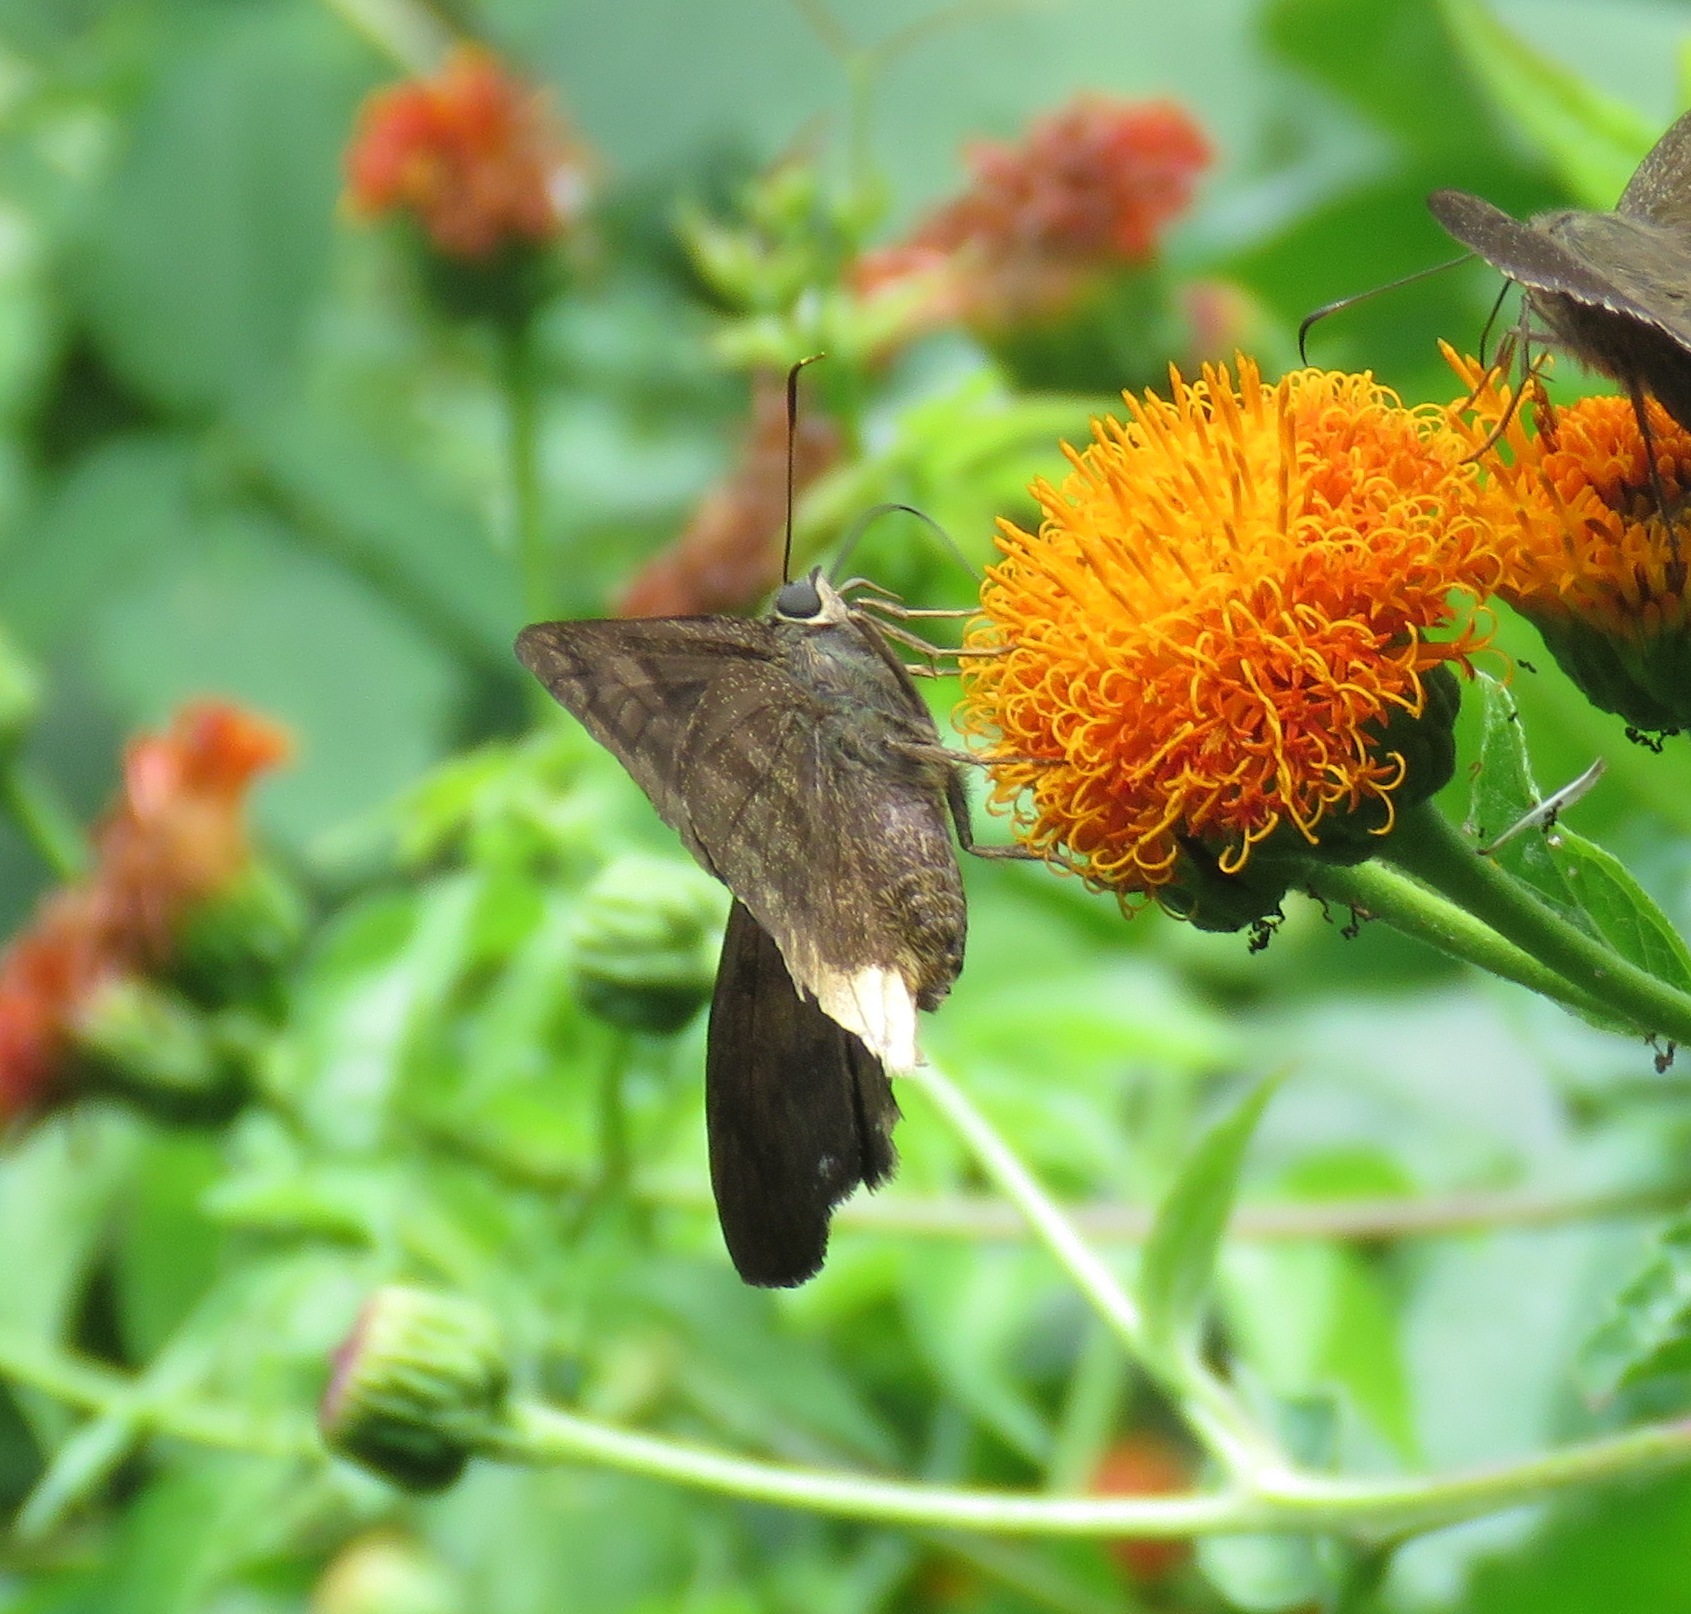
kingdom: Animalia
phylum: Arthropoda
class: Insecta
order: Lepidoptera
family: Hesperiidae
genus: Astraptes
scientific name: Astraptes anaphus
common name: Yellow-tipped flasher
